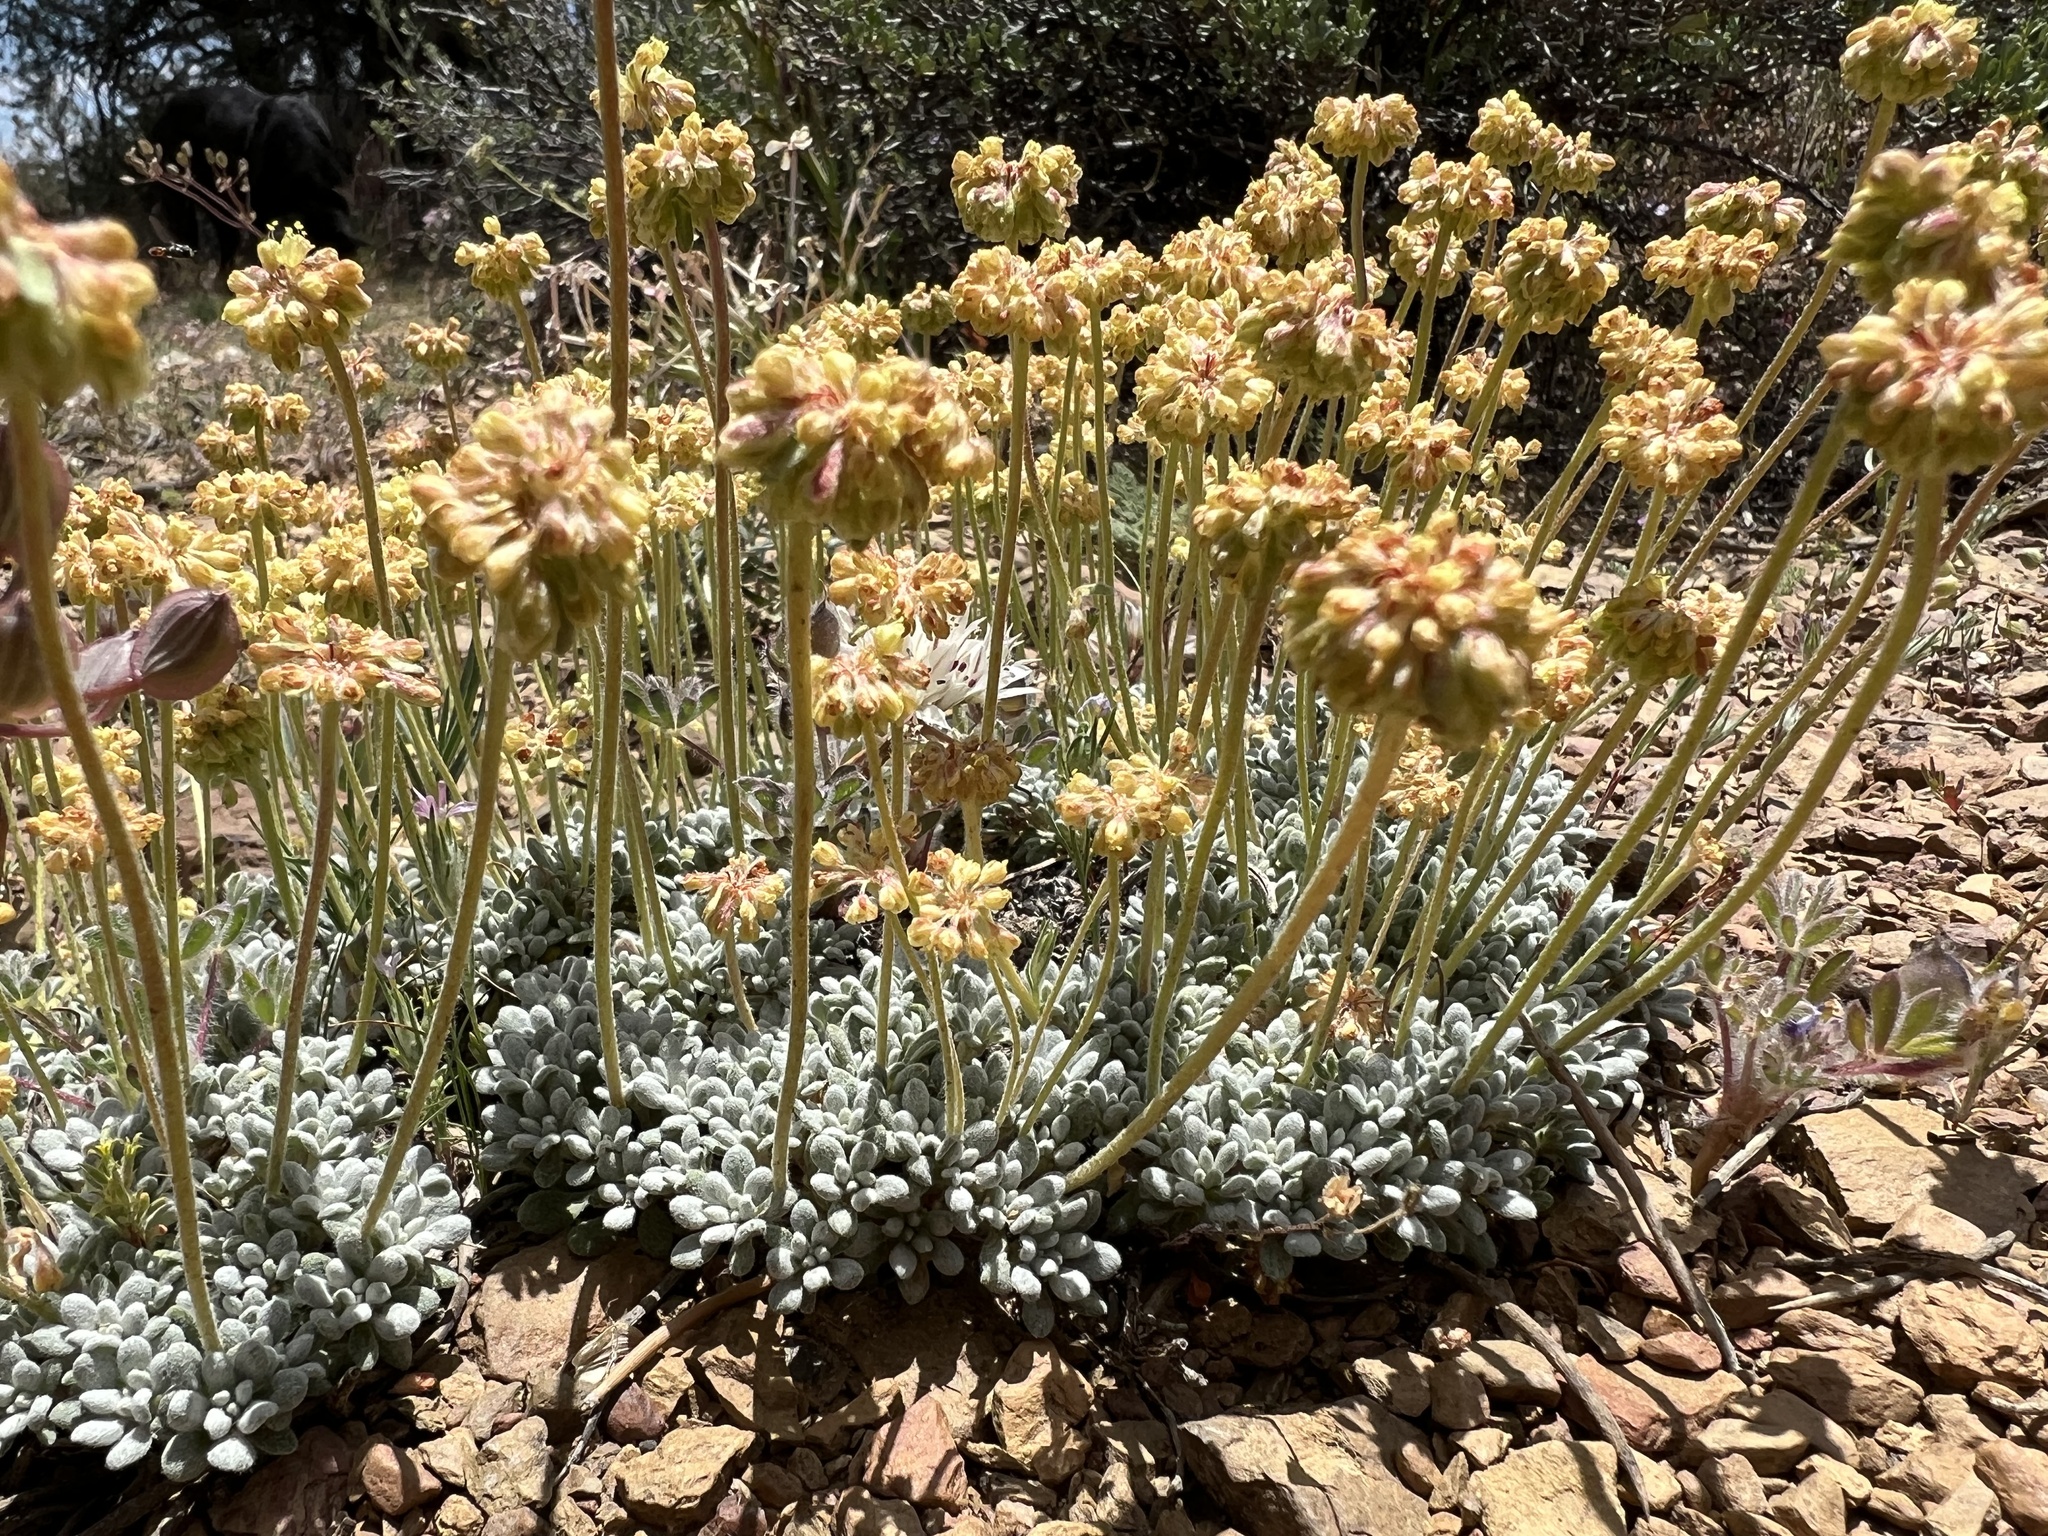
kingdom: Plantae
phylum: Tracheophyta
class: Magnoliopsida
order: Caryophyllales
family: Polygonaceae
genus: Eriogonum
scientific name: Eriogonum caespitosum
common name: Matted wild buckwheat
